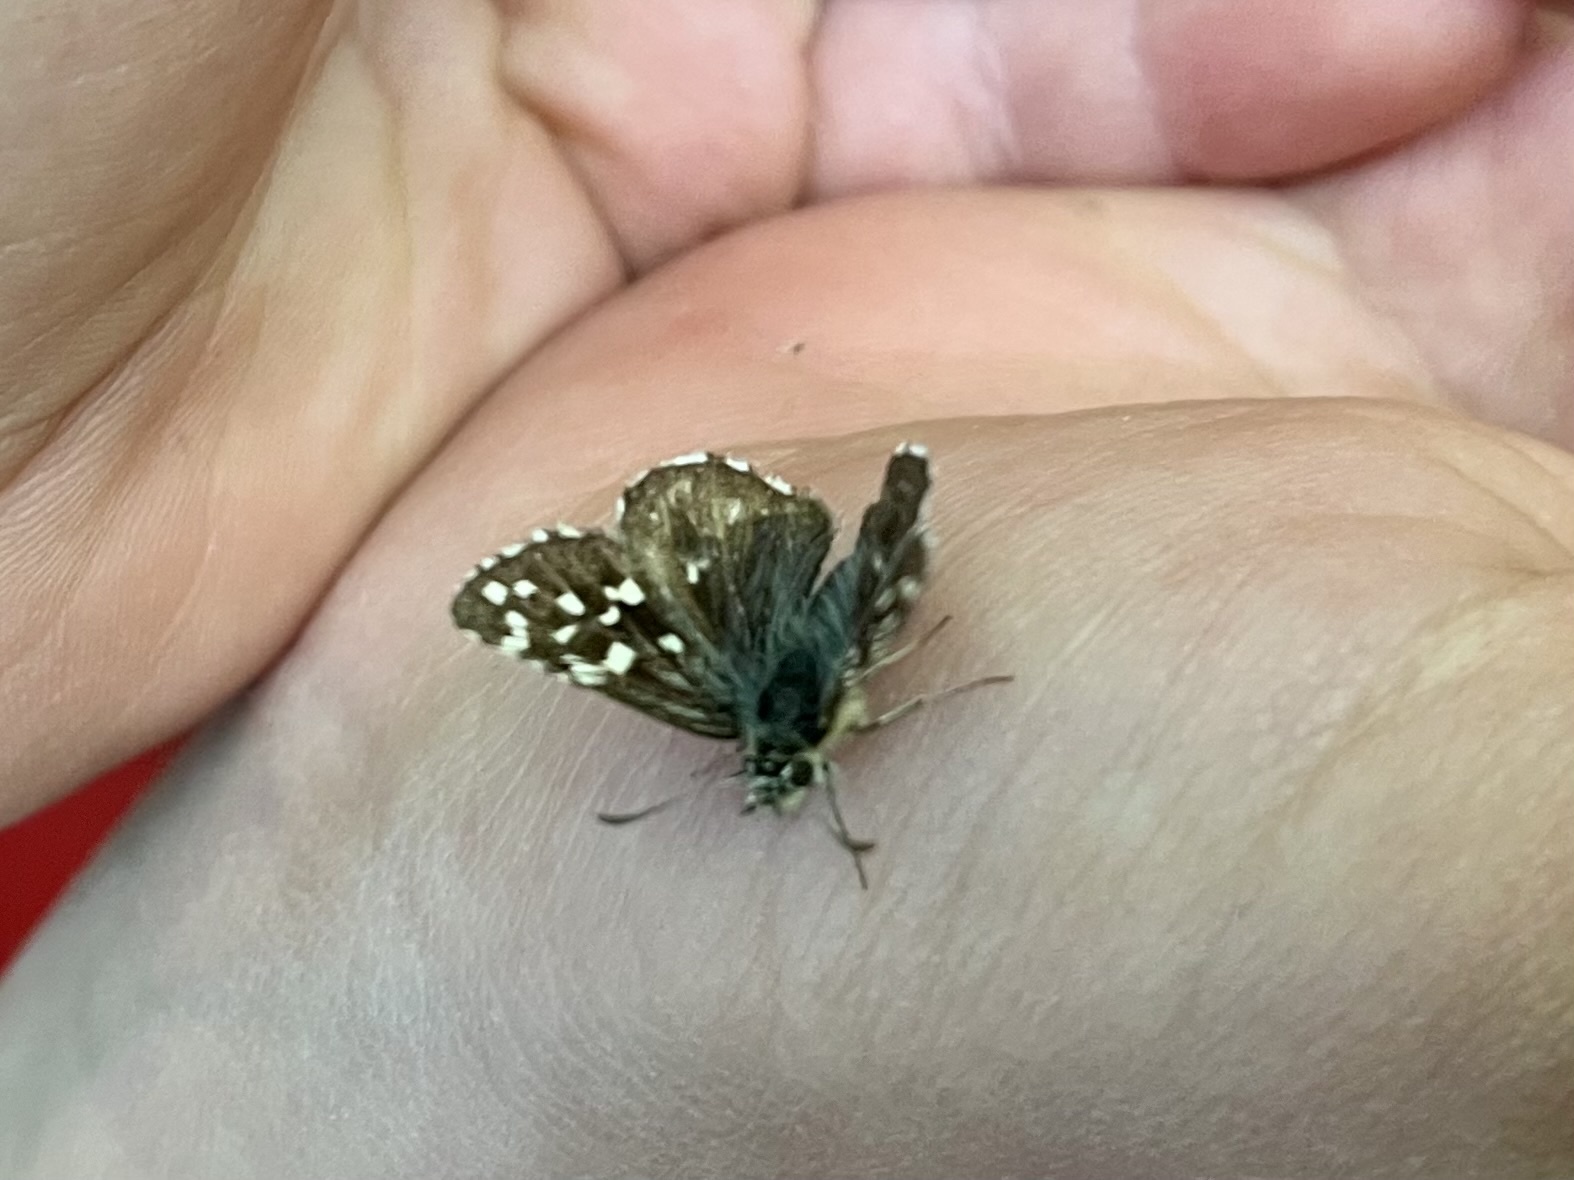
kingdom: Animalia
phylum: Arthropoda
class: Insecta
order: Lepidoptera
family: Hesperiidae
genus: Pyrgus
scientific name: Pyrgus malvae
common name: Grizzled skipper
